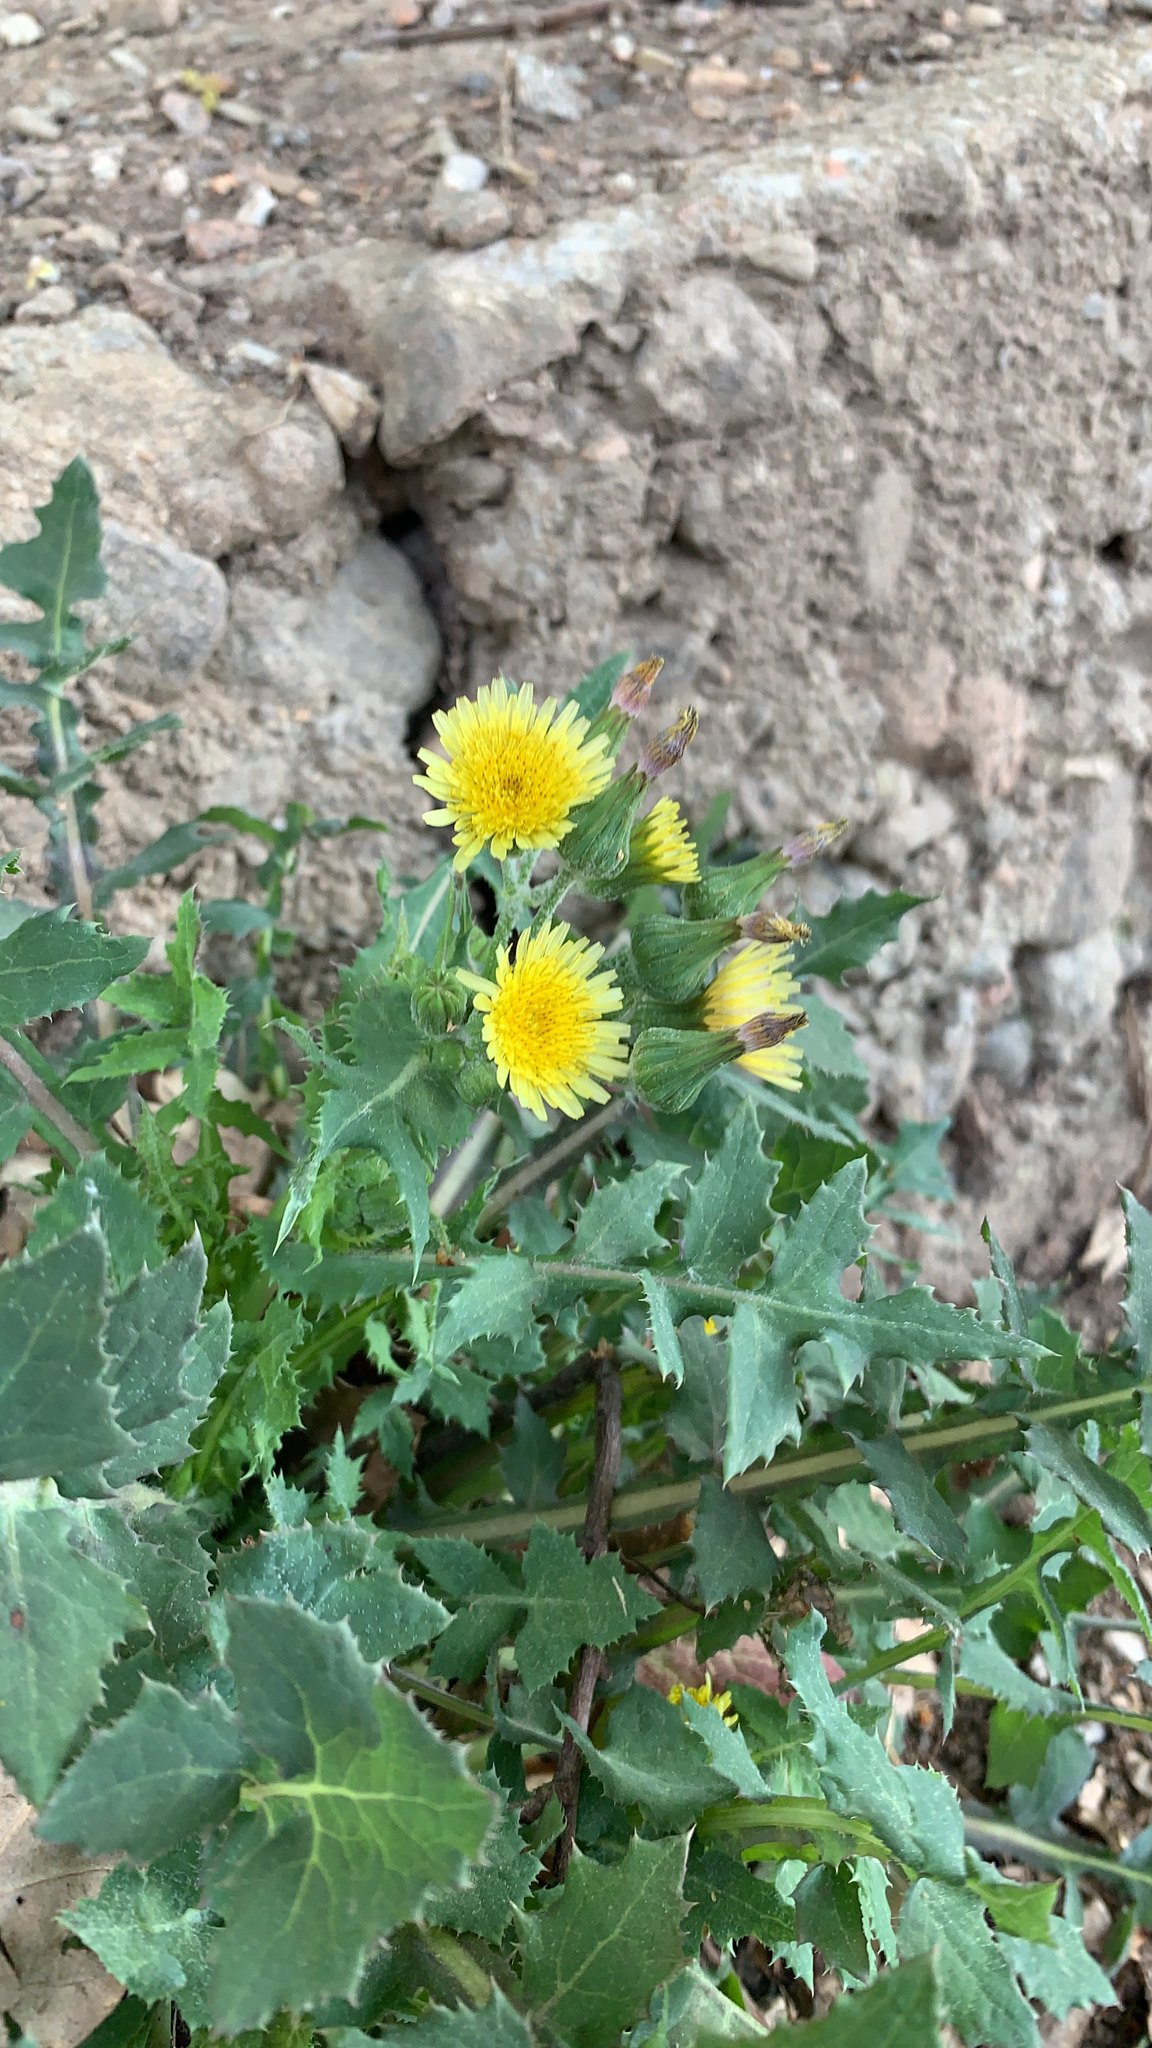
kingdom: Plantae
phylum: Tracheophyta
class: Magnoliopsida
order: Asterales
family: Asteraceae
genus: Sonchus
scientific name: Sonchus oleraceus
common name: Common sowthistle
